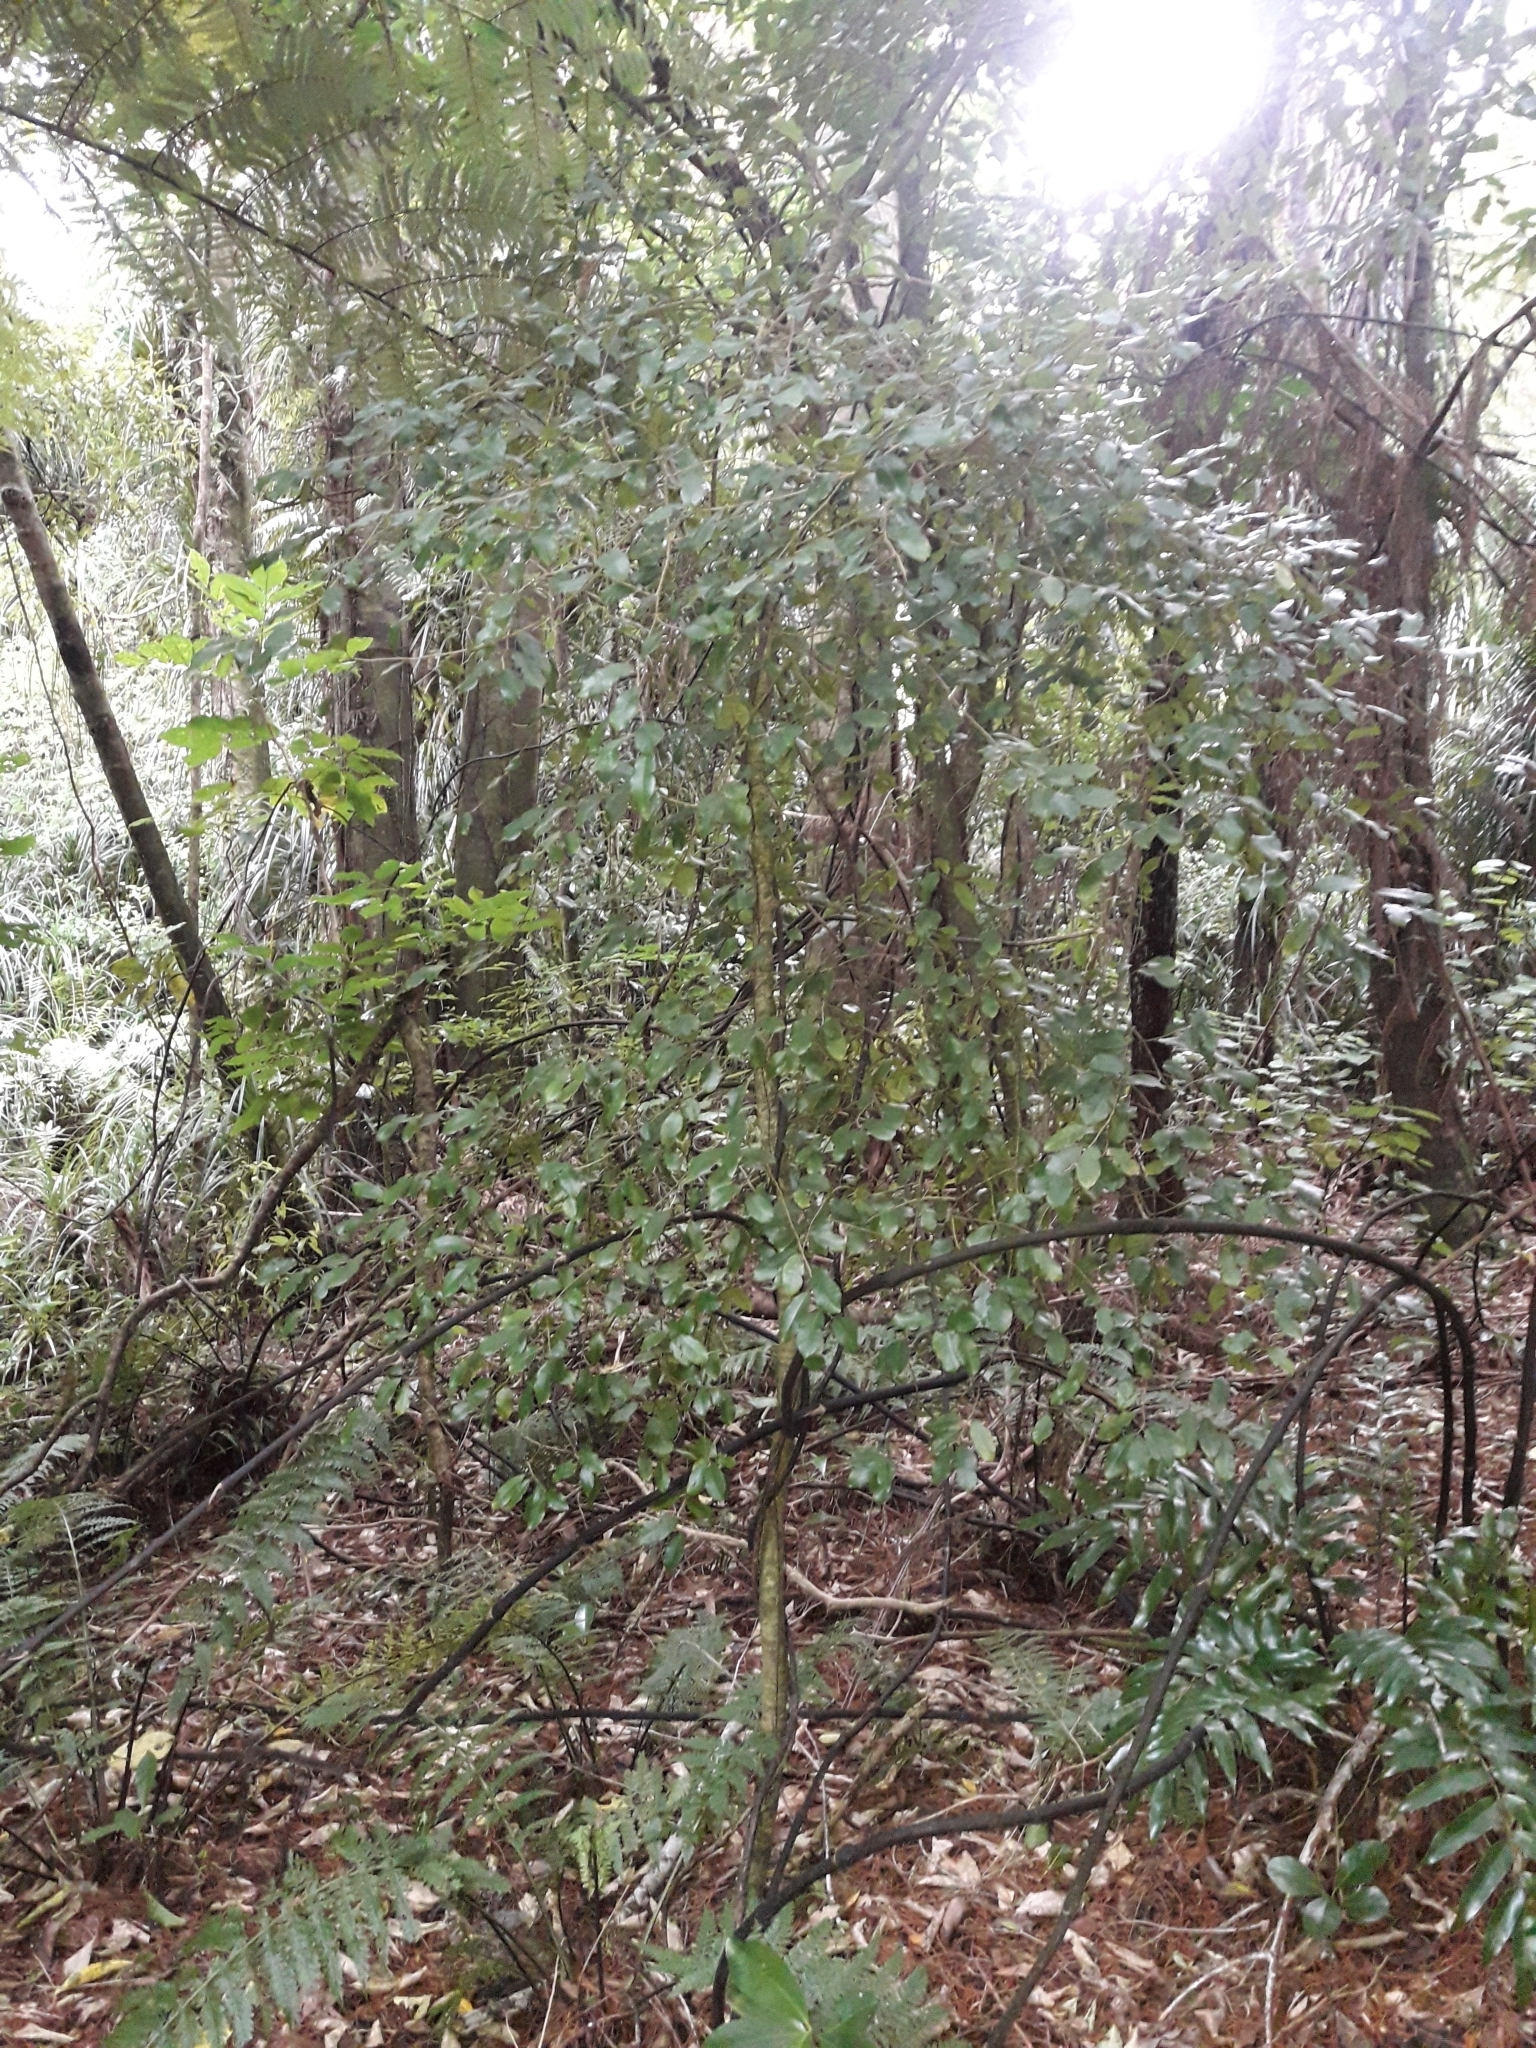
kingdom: Plantae
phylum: Tracheophyta
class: Magnoliopsida
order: Rosales
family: Moraceae
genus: Paratrophis
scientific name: Paratrophis banksii
